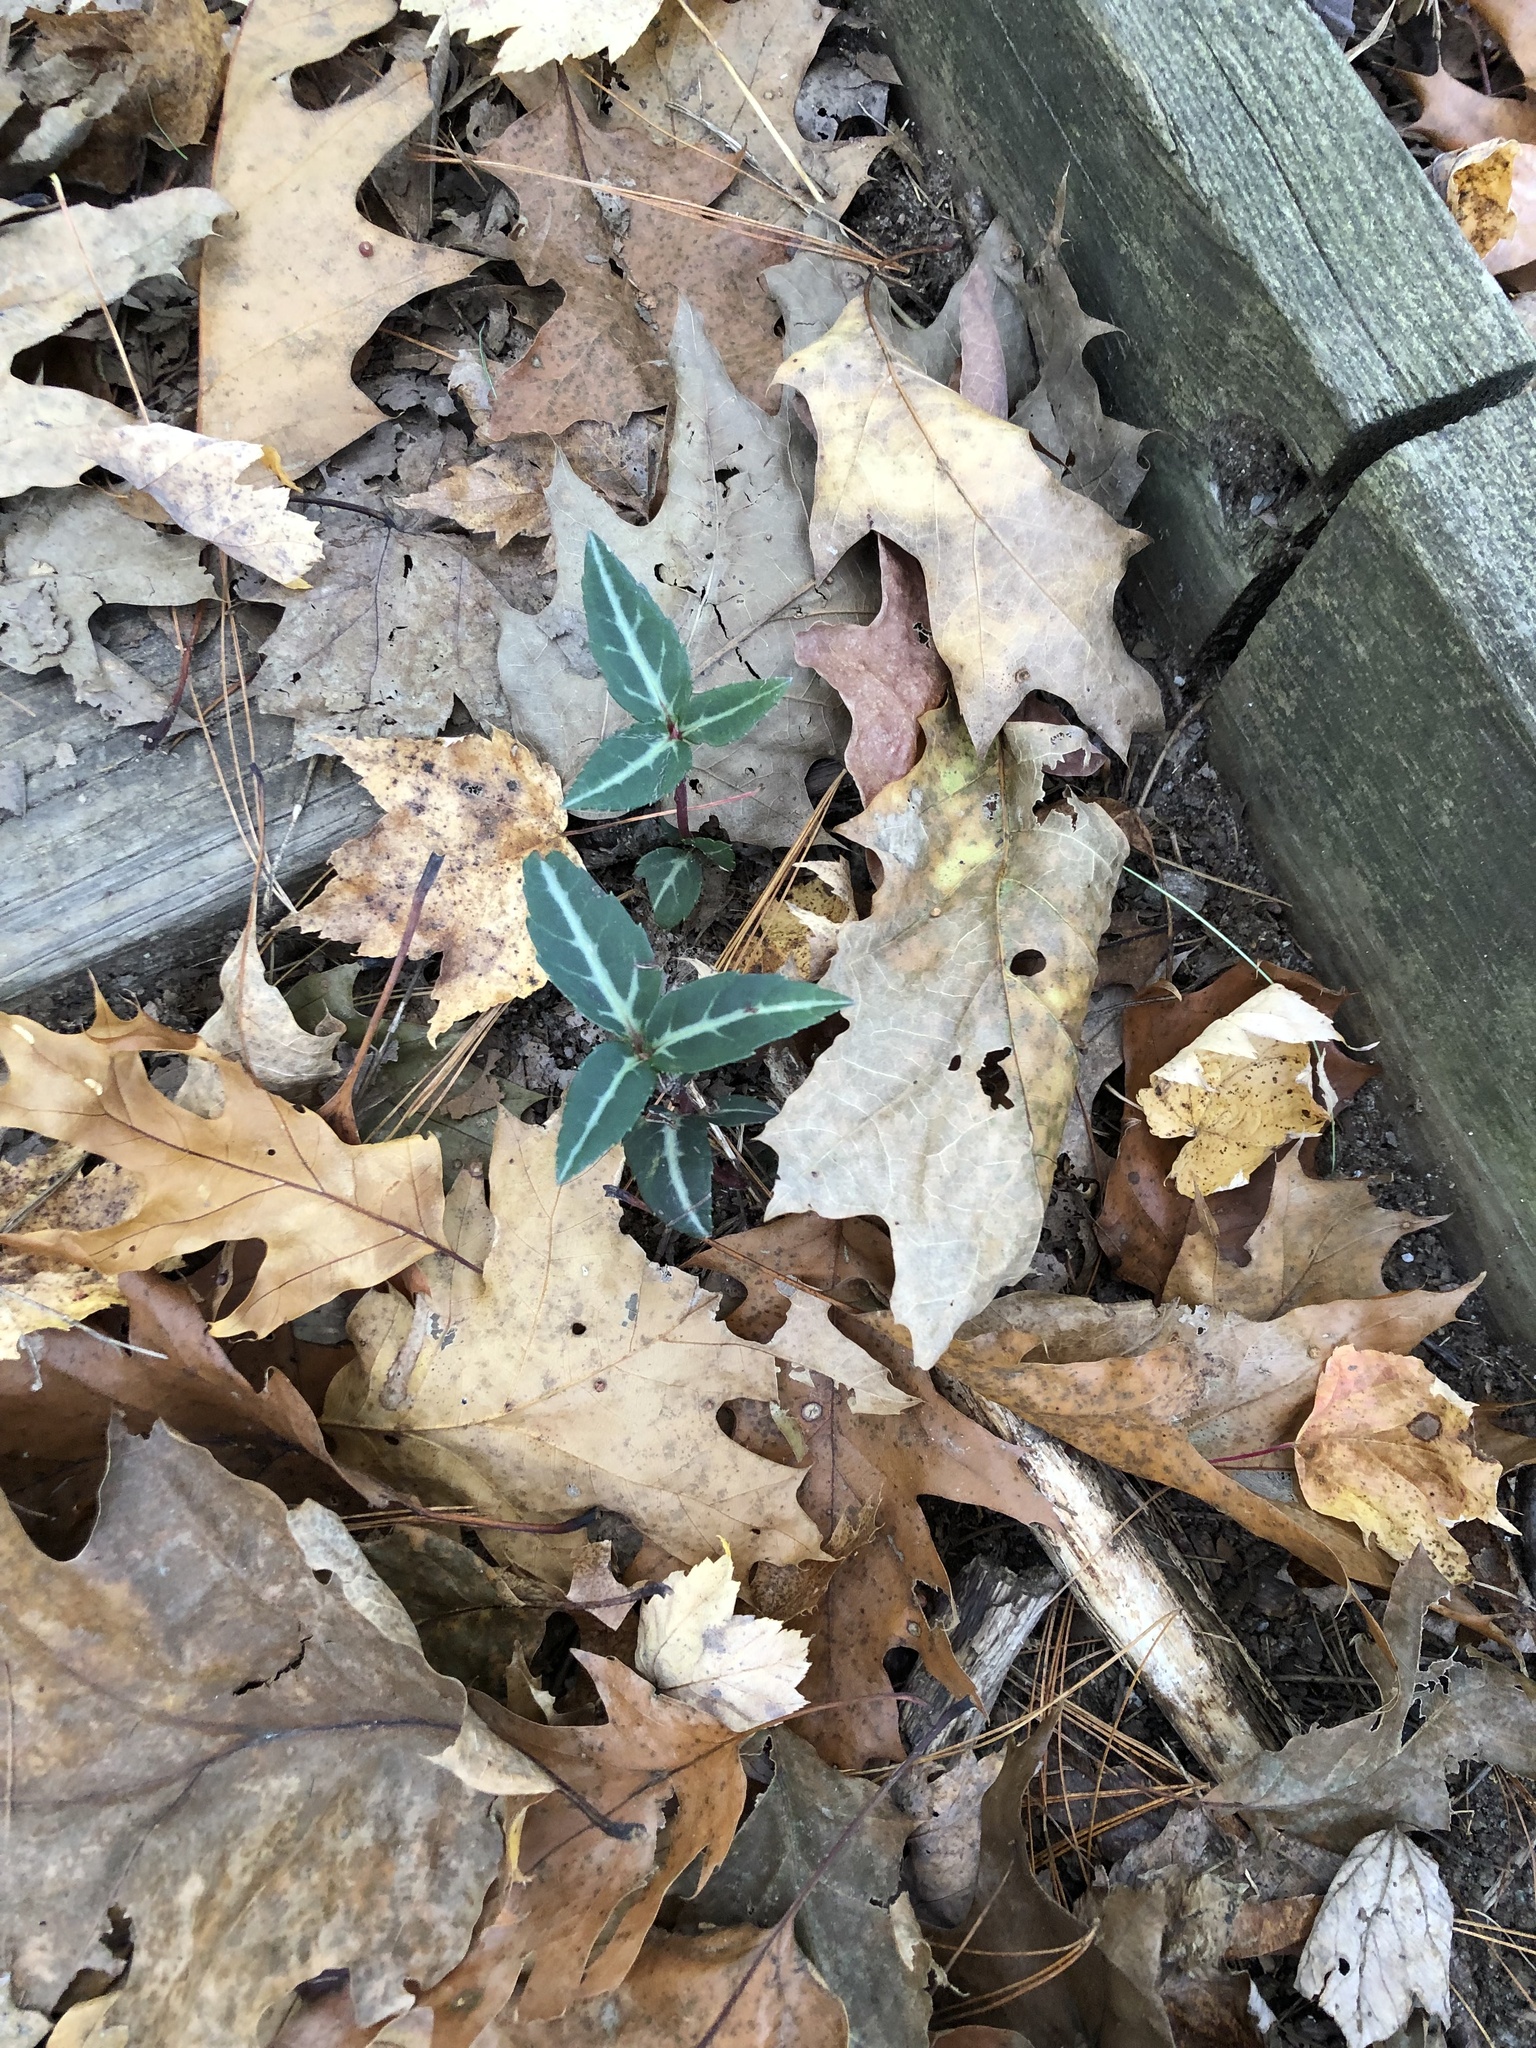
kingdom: Plantae
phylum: Tracheophyta
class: Magnoliopsida
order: Ericales
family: Ericaceae
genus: Chimaphila
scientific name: Chimaphila maculata
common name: Spotted pipsissewa
